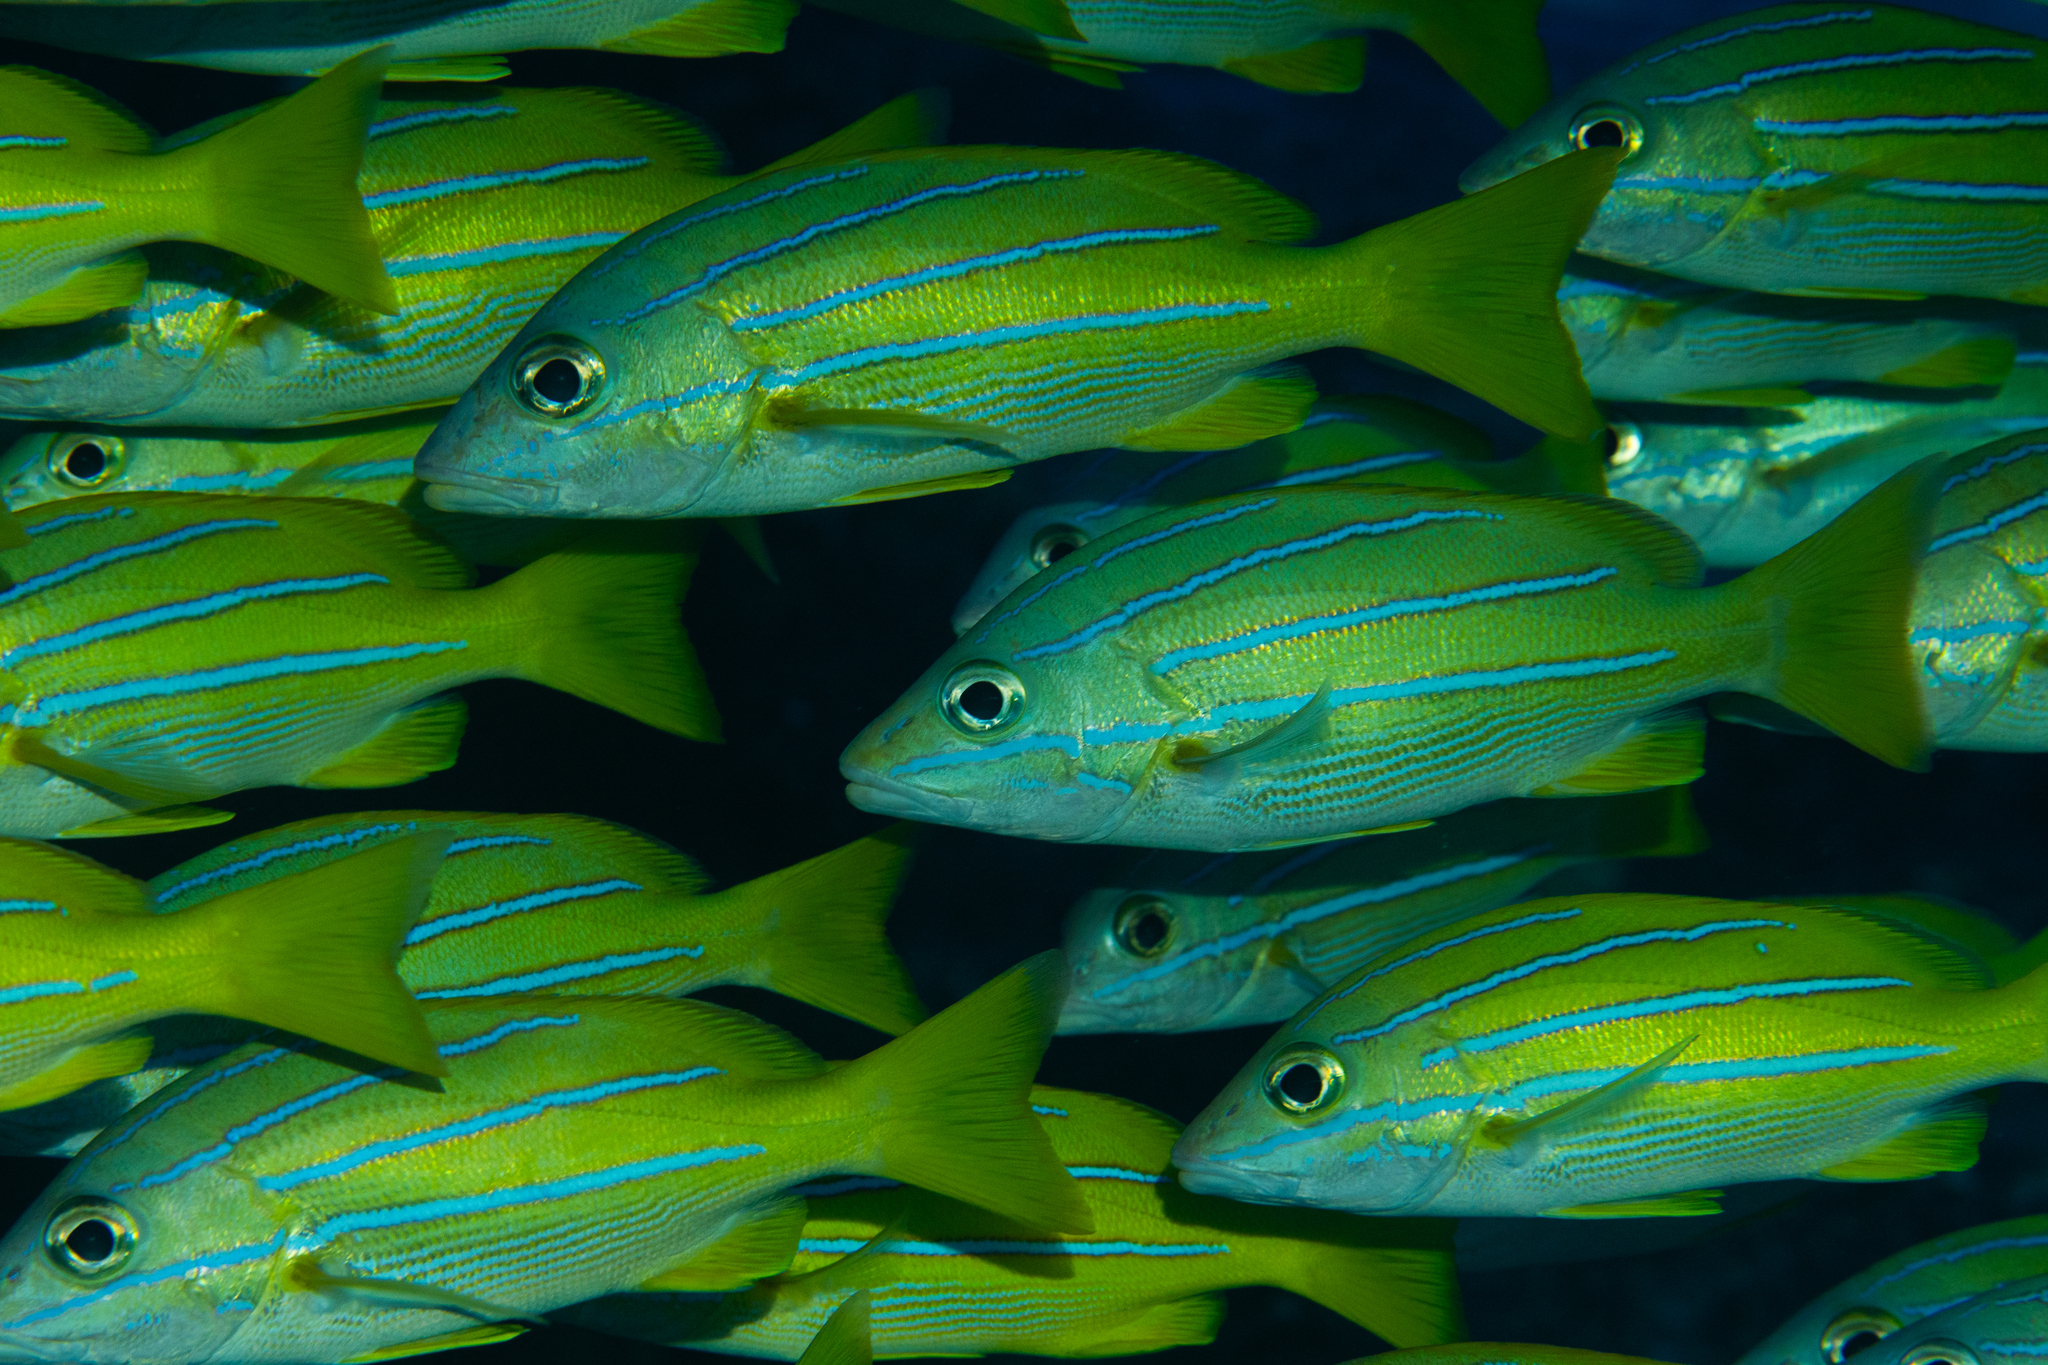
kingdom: Animalia
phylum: Chordata
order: Perciformes
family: Lutjanidae
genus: Lutjanus
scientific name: Lutjanus kasmira
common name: Common bluestripe snapper
